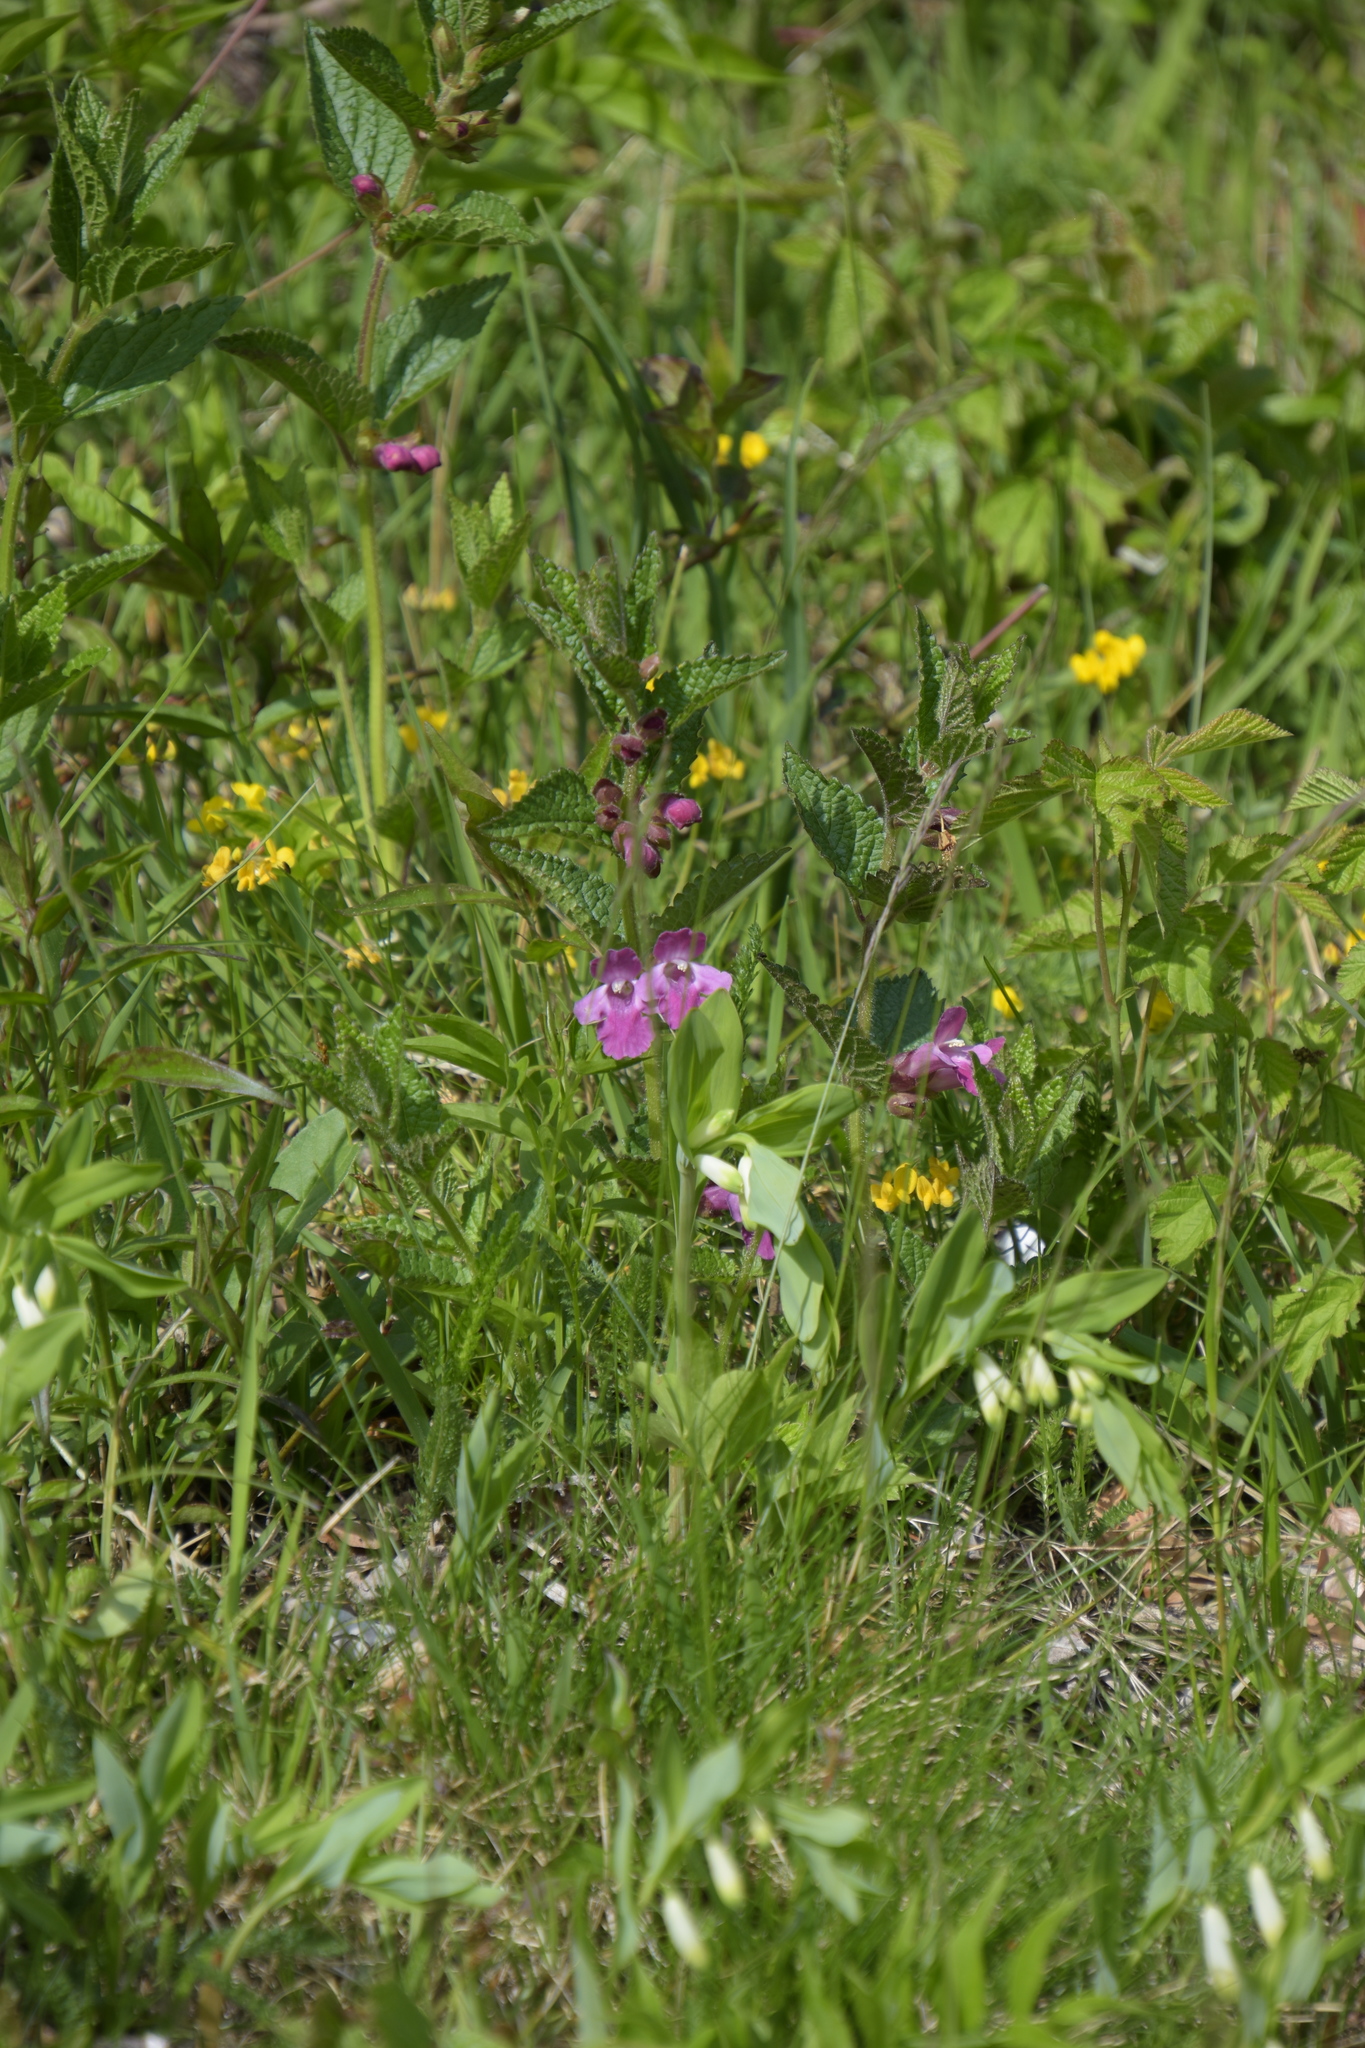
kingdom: Plantae
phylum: Tracheophyta
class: Magnoliopsida
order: Lamiales
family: Lamiaceae
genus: Melittis
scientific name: Melittis melissophyllum
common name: Bastard balm
